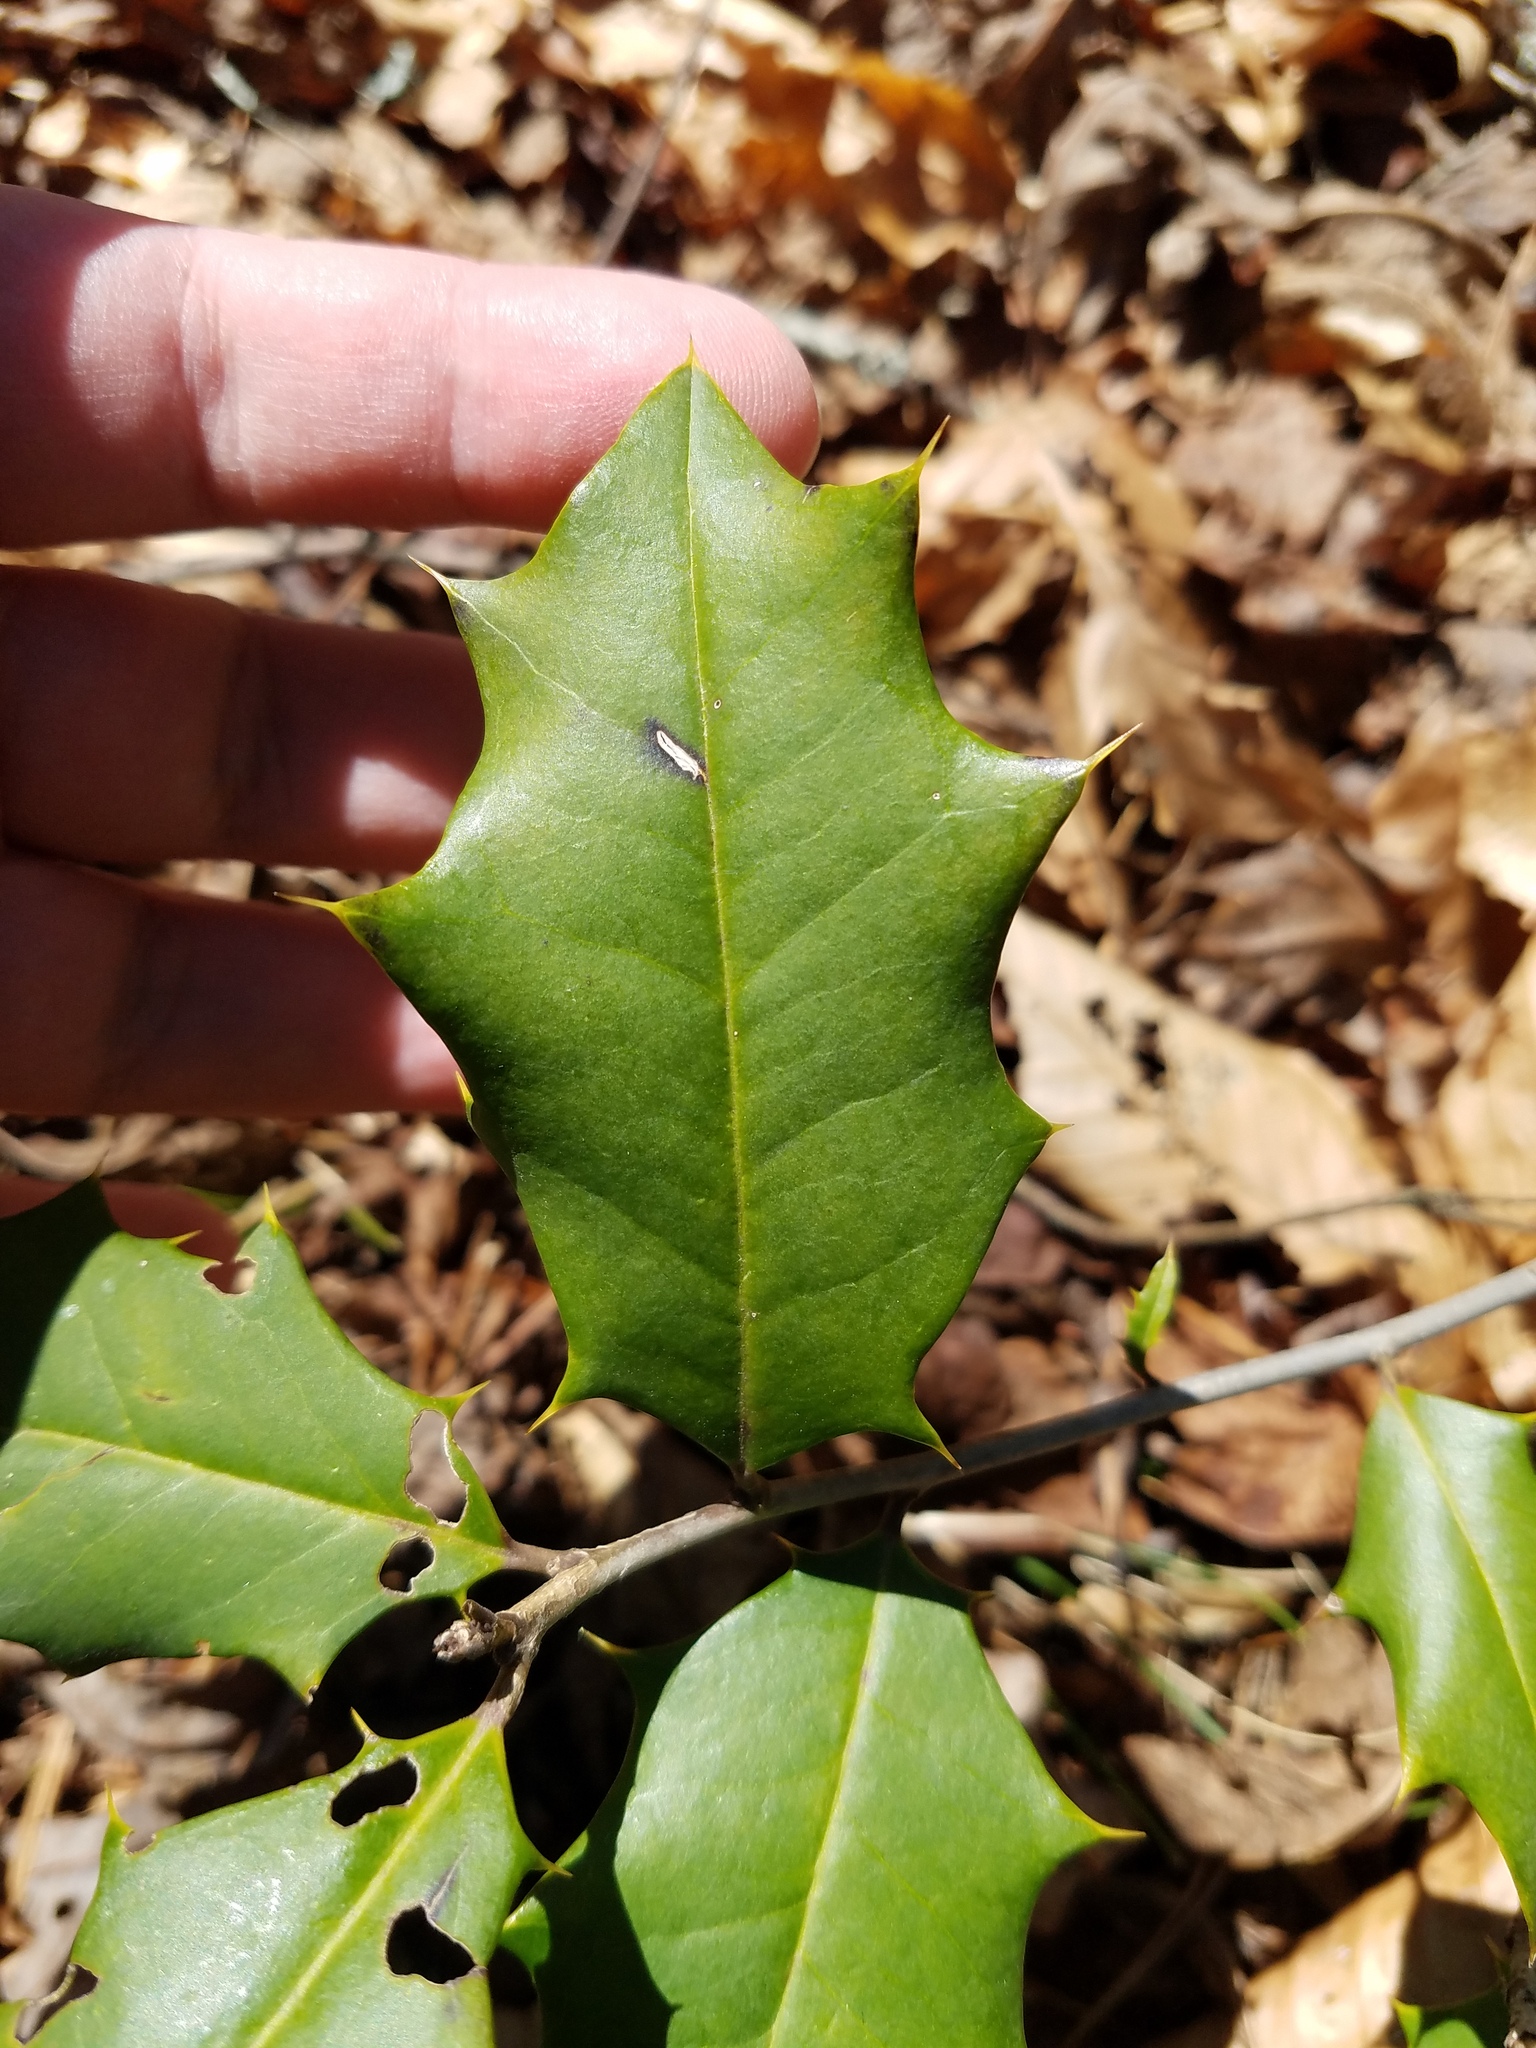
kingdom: Plantae
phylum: Tracheophyta
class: Magnoliopsida
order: Aquifoliales
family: Aquifoliaceae
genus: Ilex
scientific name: Ilex opaca
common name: American holly
